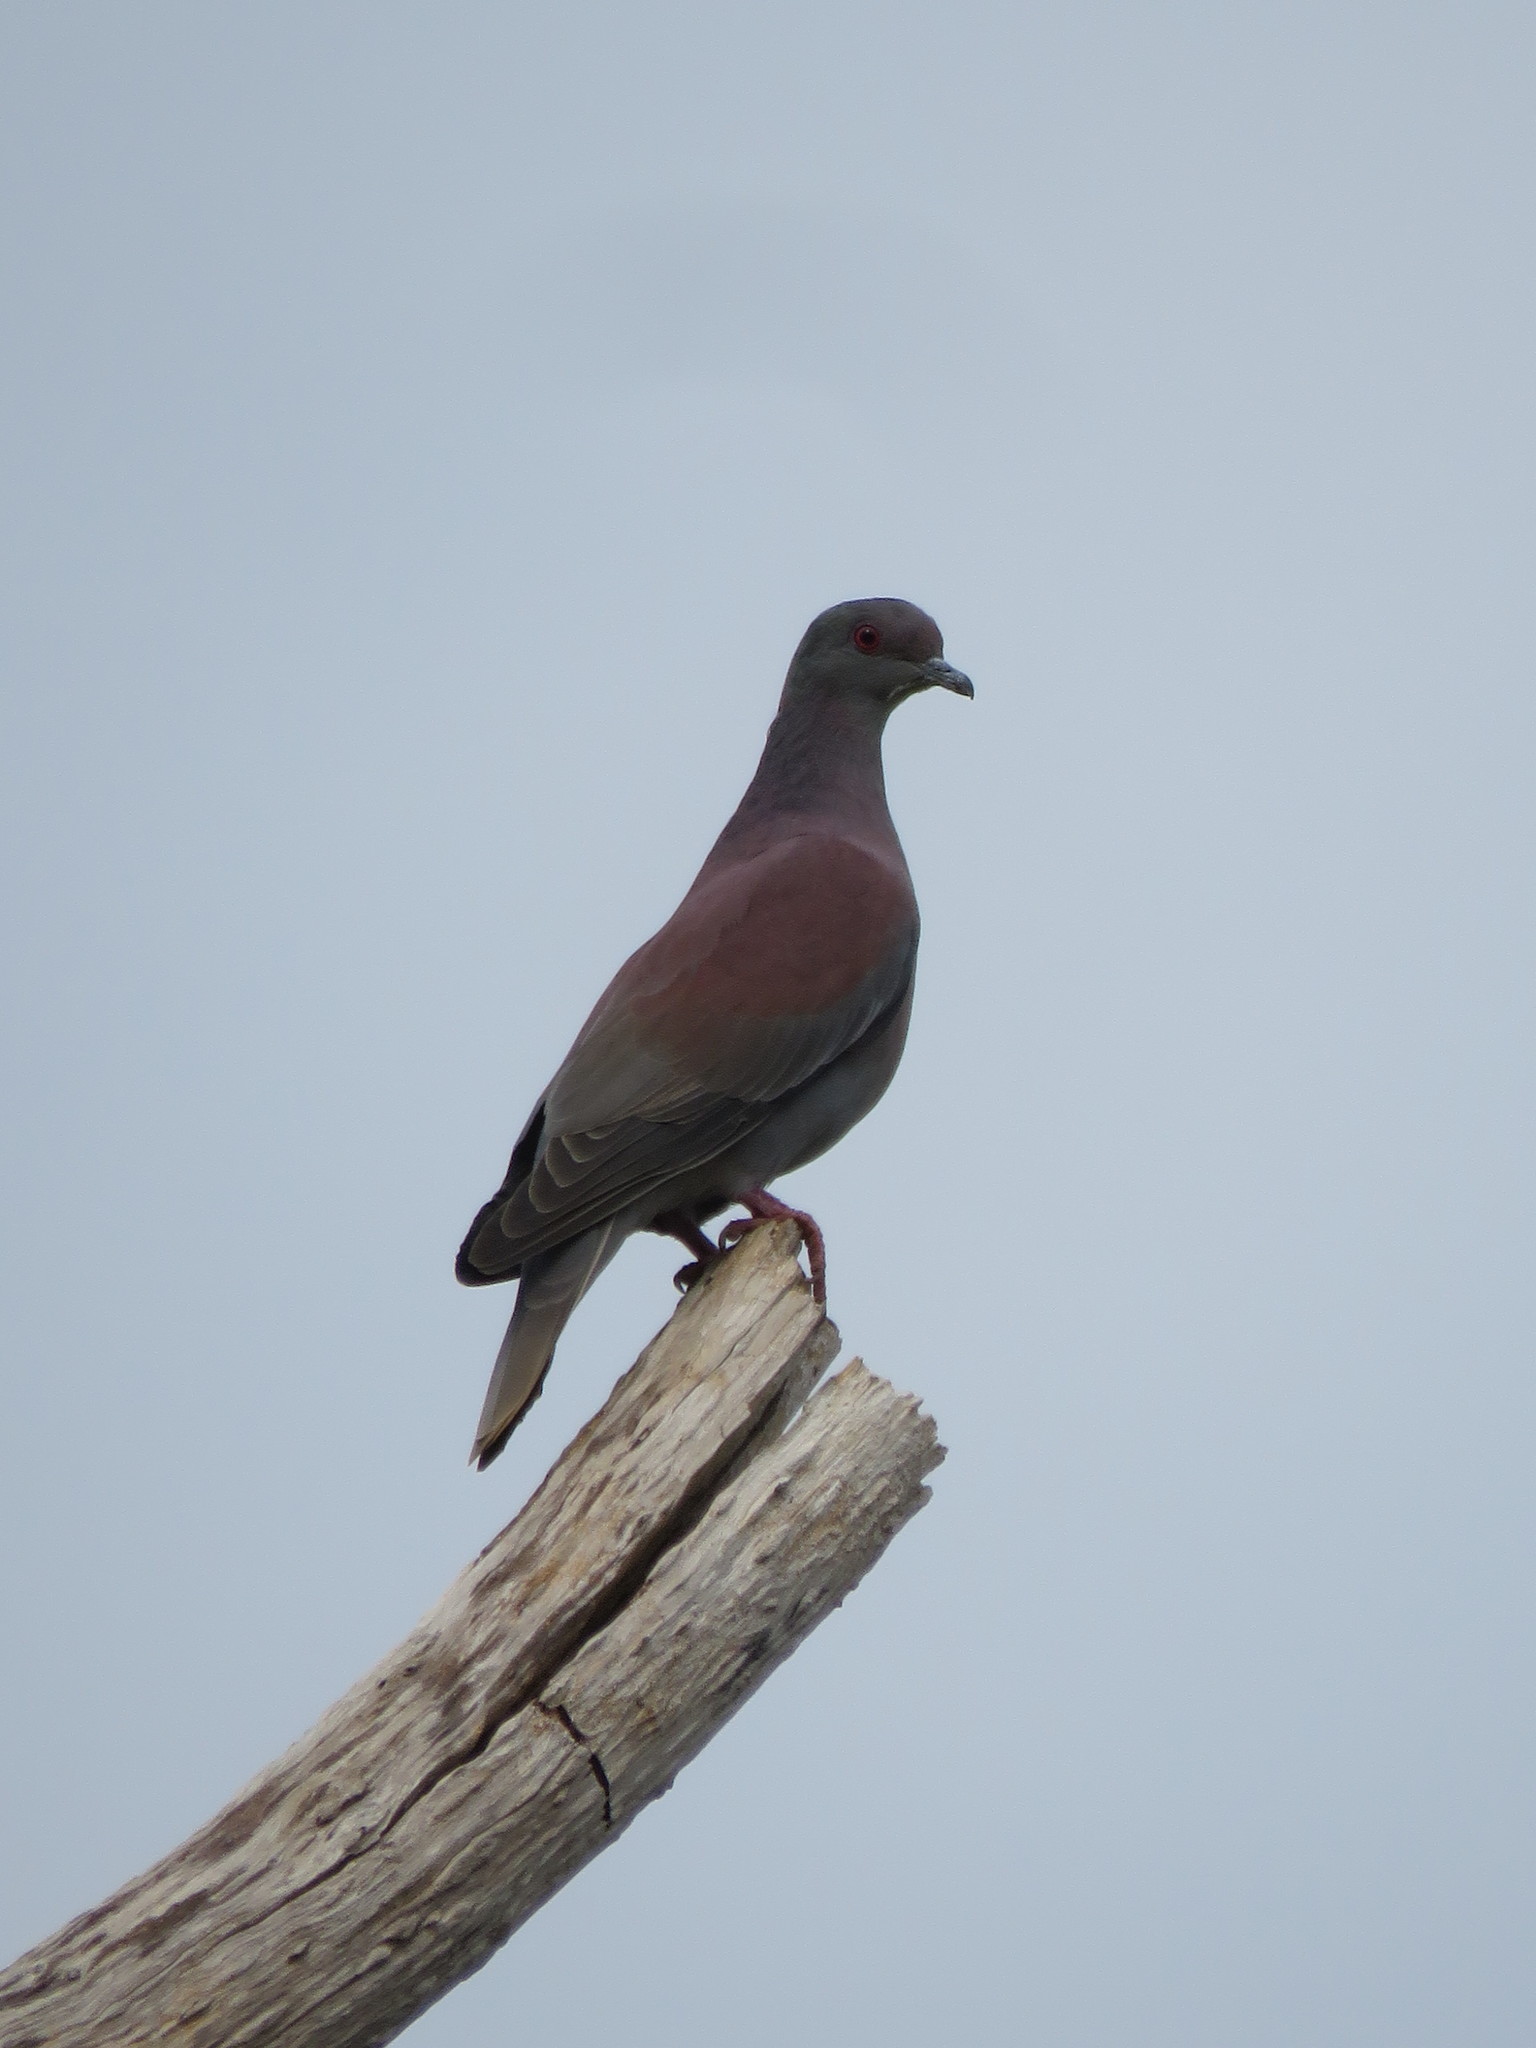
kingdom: Animalia
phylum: Chordata
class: Aves
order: Columbiformes
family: Columbidae
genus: Patagioenas
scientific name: Patagioenas cayennensis
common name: Pale-vented pigeon
